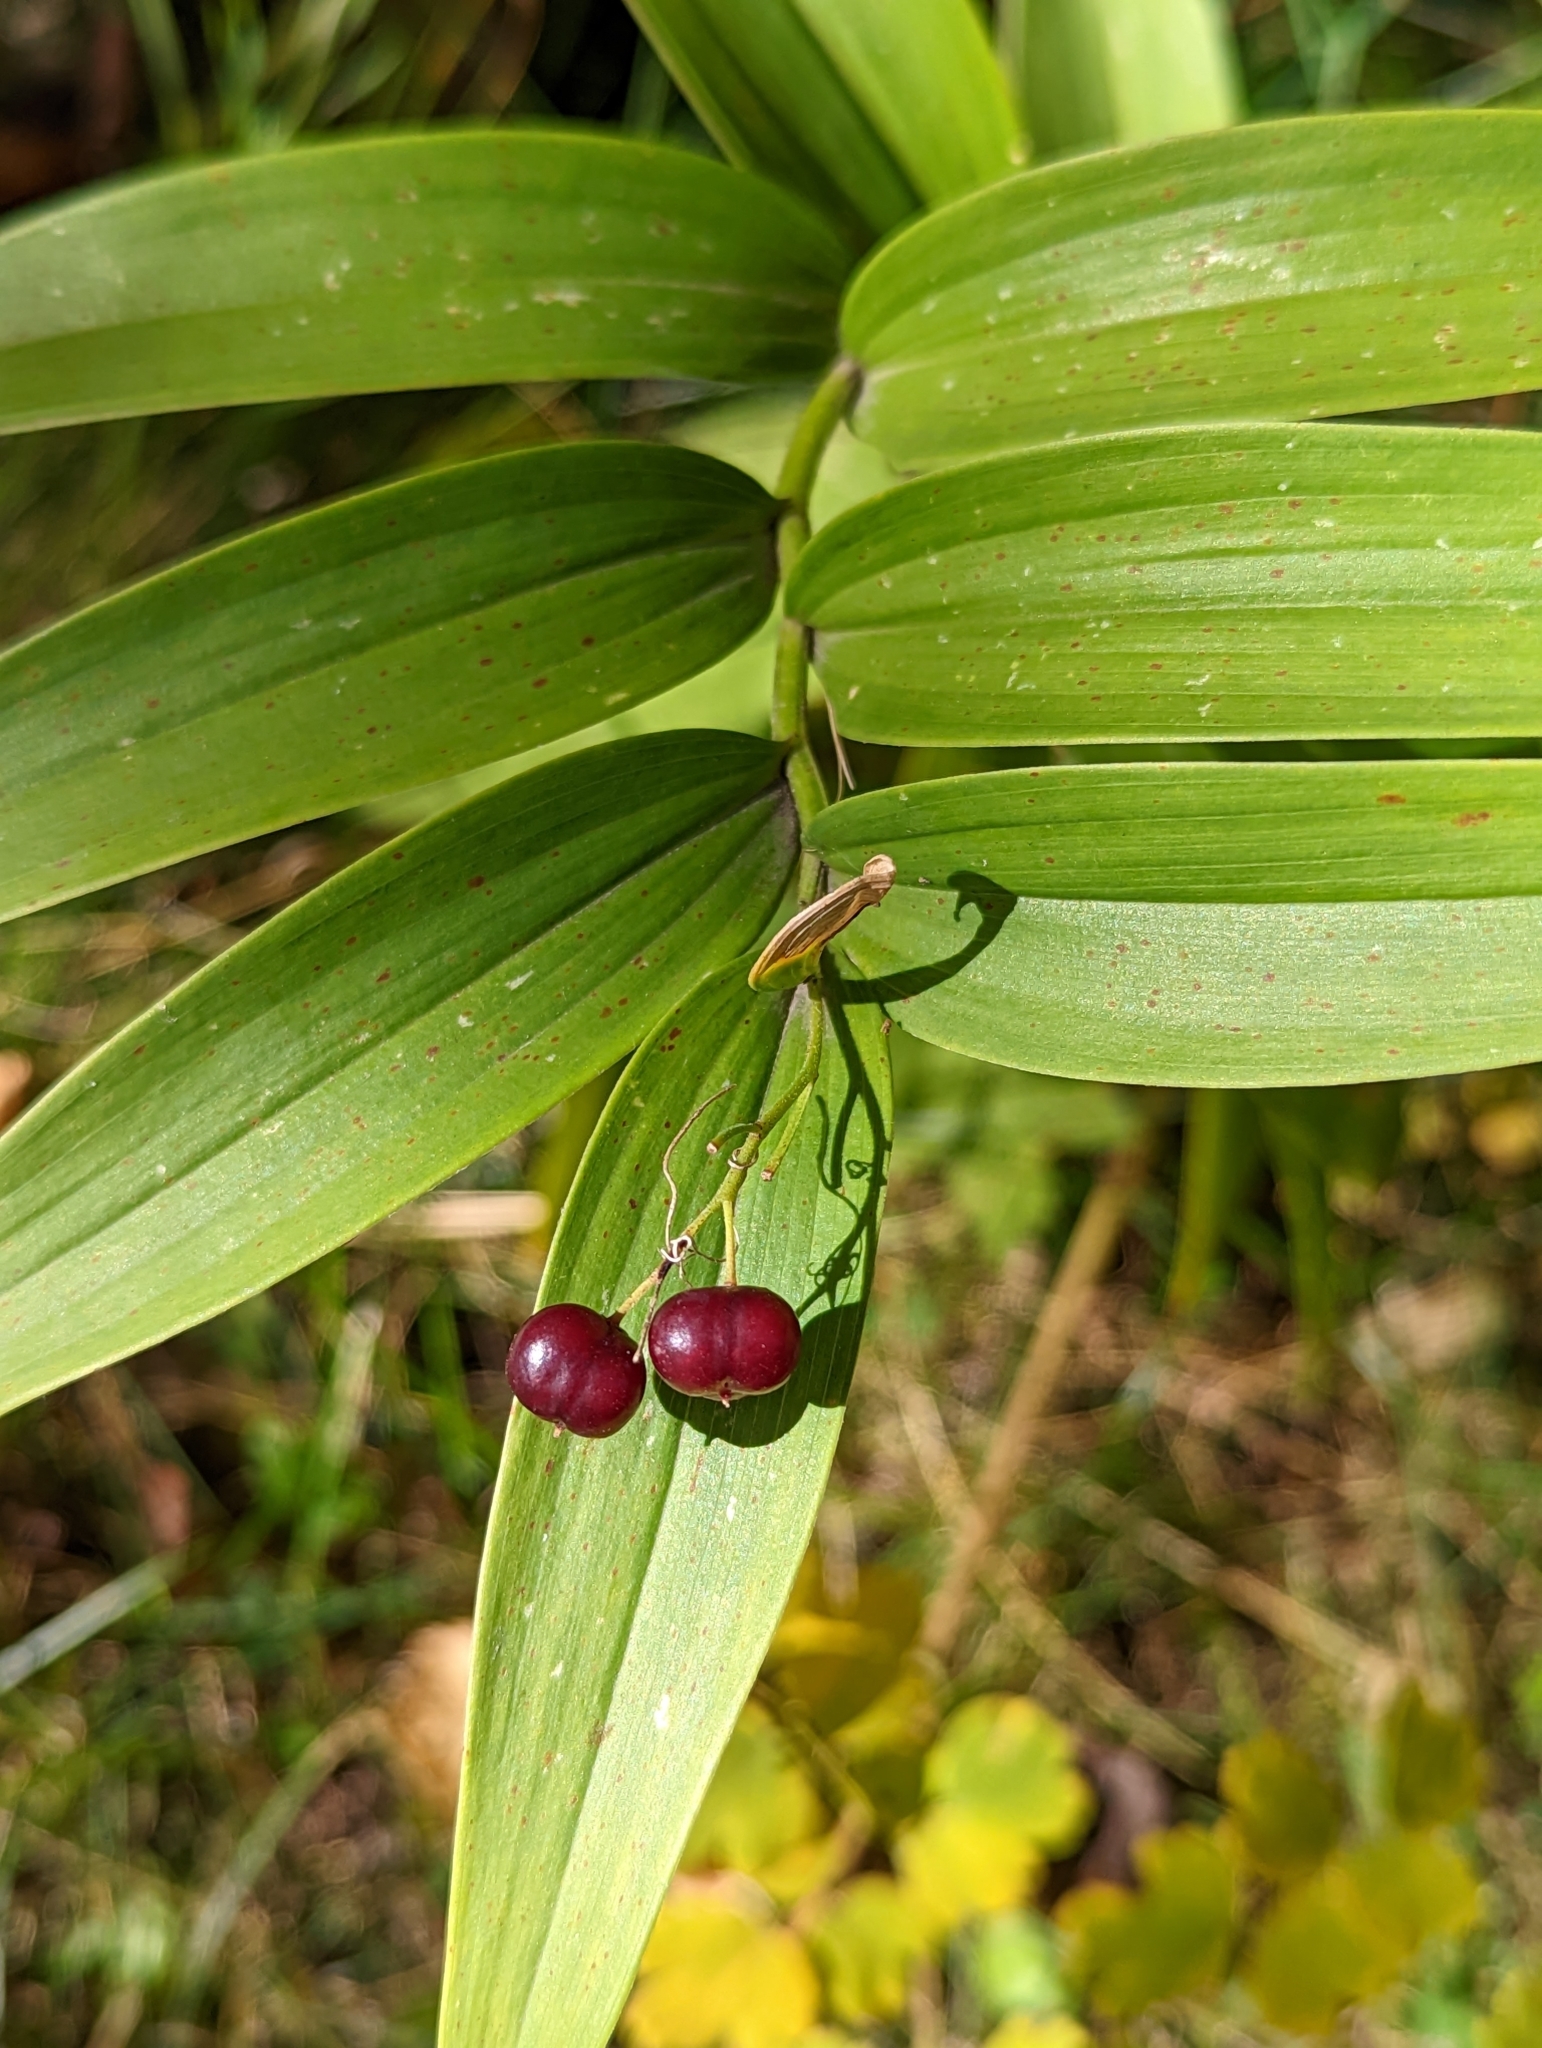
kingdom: Plantae
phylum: Tracheophyta
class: Liliopsida
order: Asparagales
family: Asparagaceae
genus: Maianthemum
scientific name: Maianthemum stellatum
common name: Little false solomon's seal
